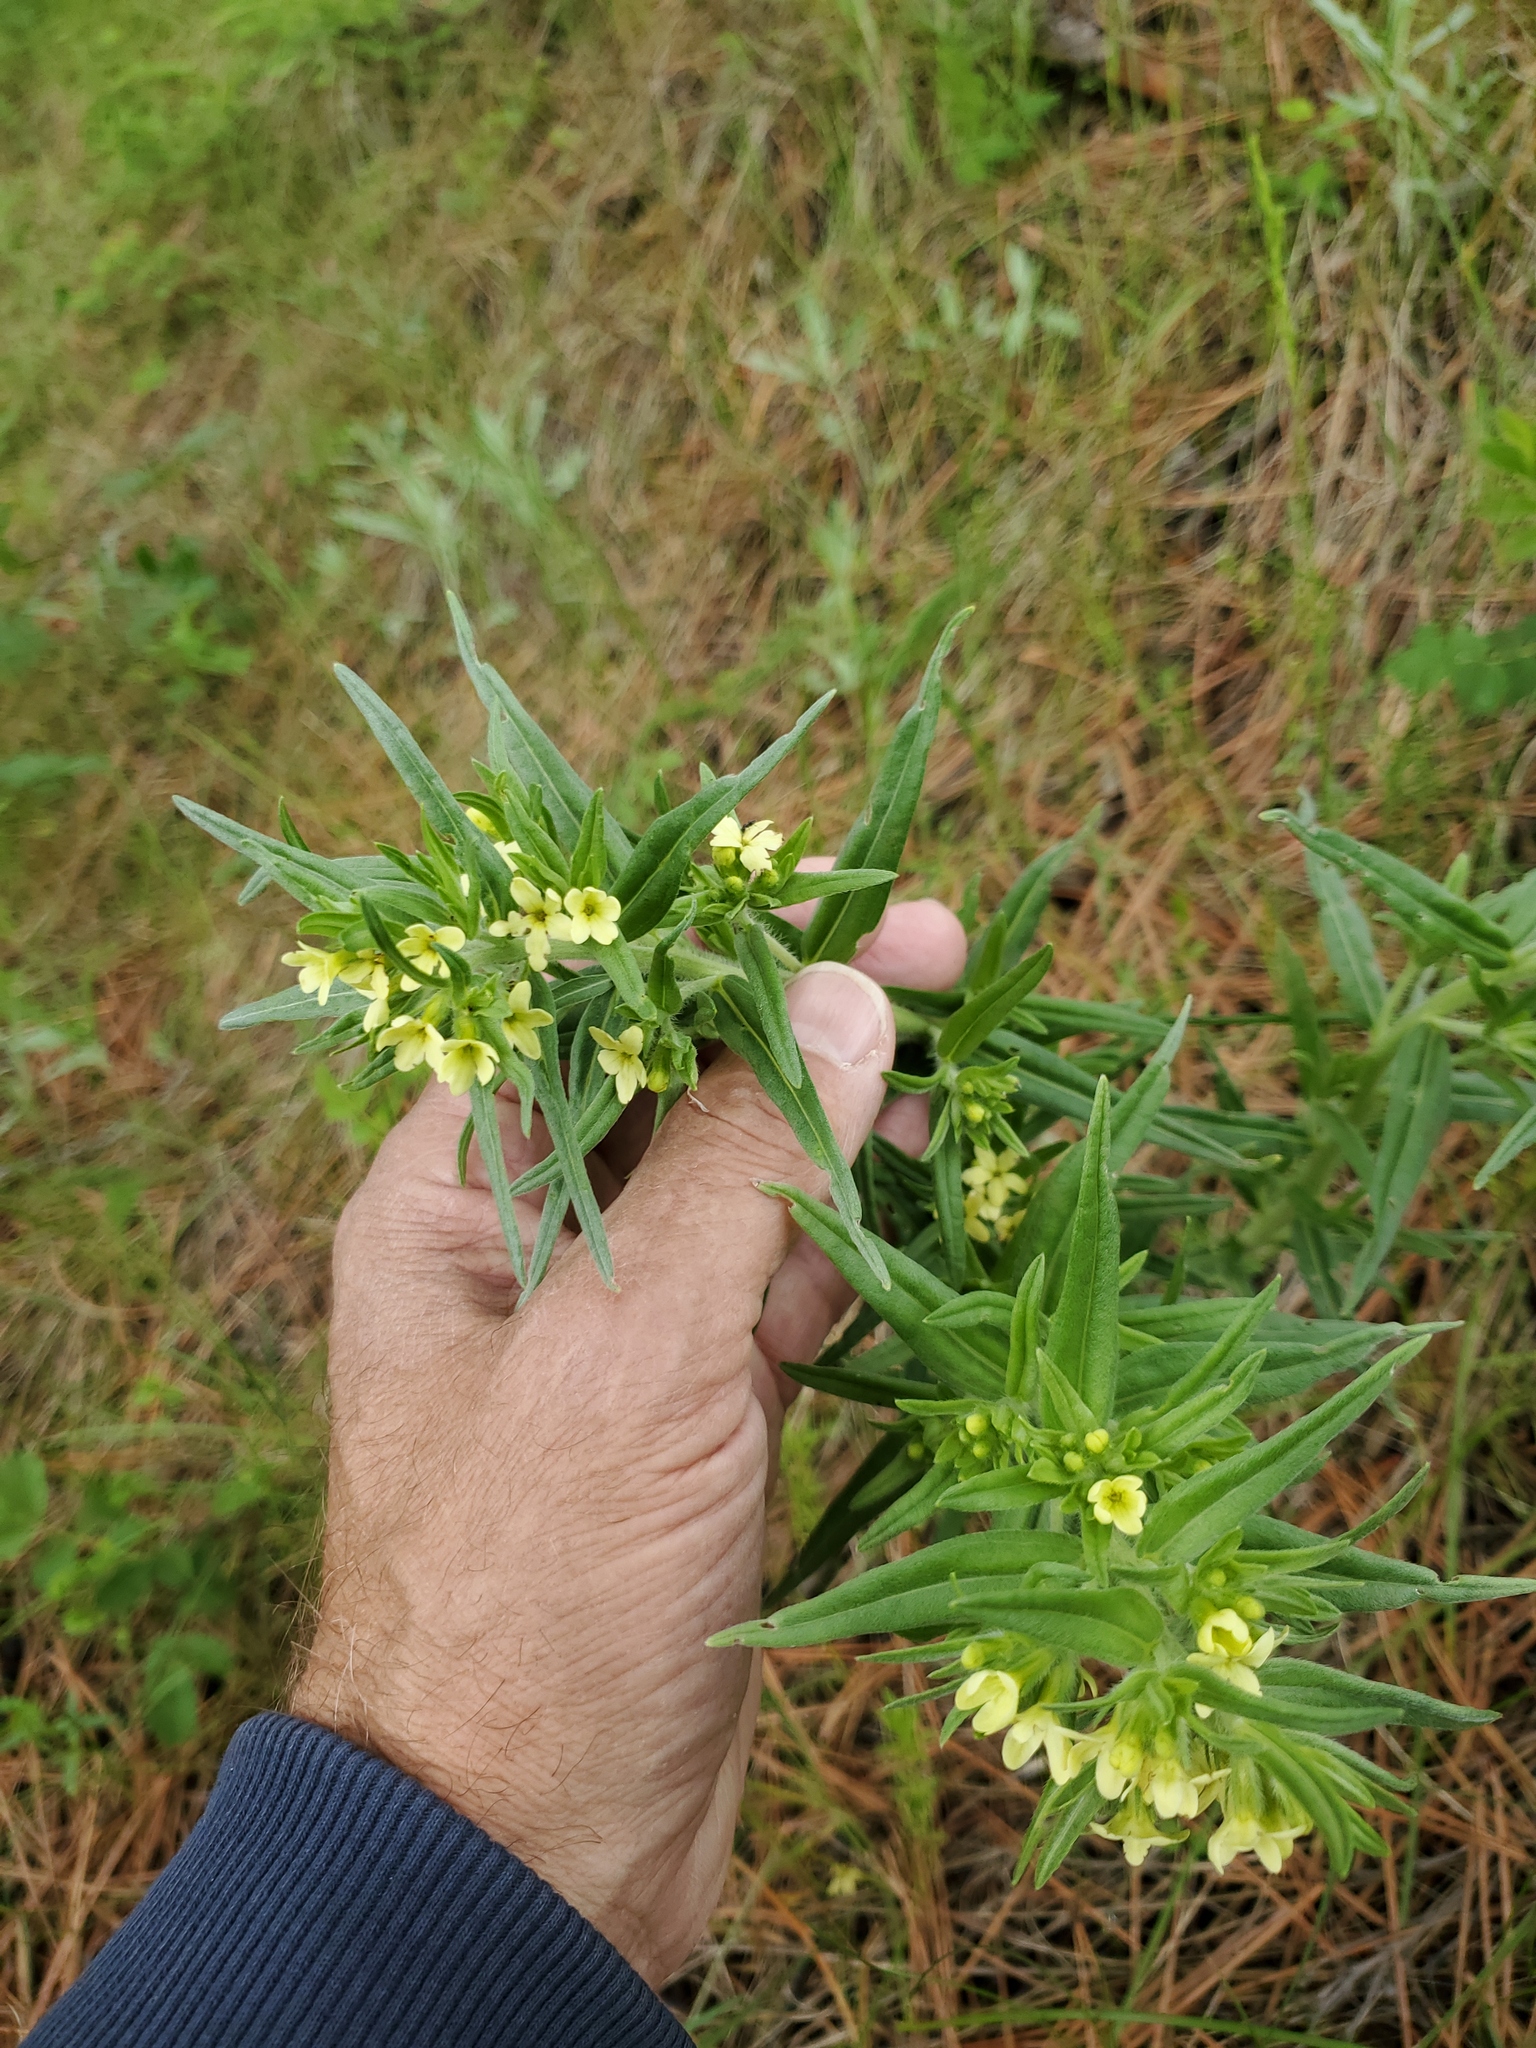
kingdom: Plantae
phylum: Tracheophyta
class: Magnoliopsida
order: Boraginales
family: Boraginaceae
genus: Lithospermum
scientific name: Lithospermum ruderale
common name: Western gromwell
